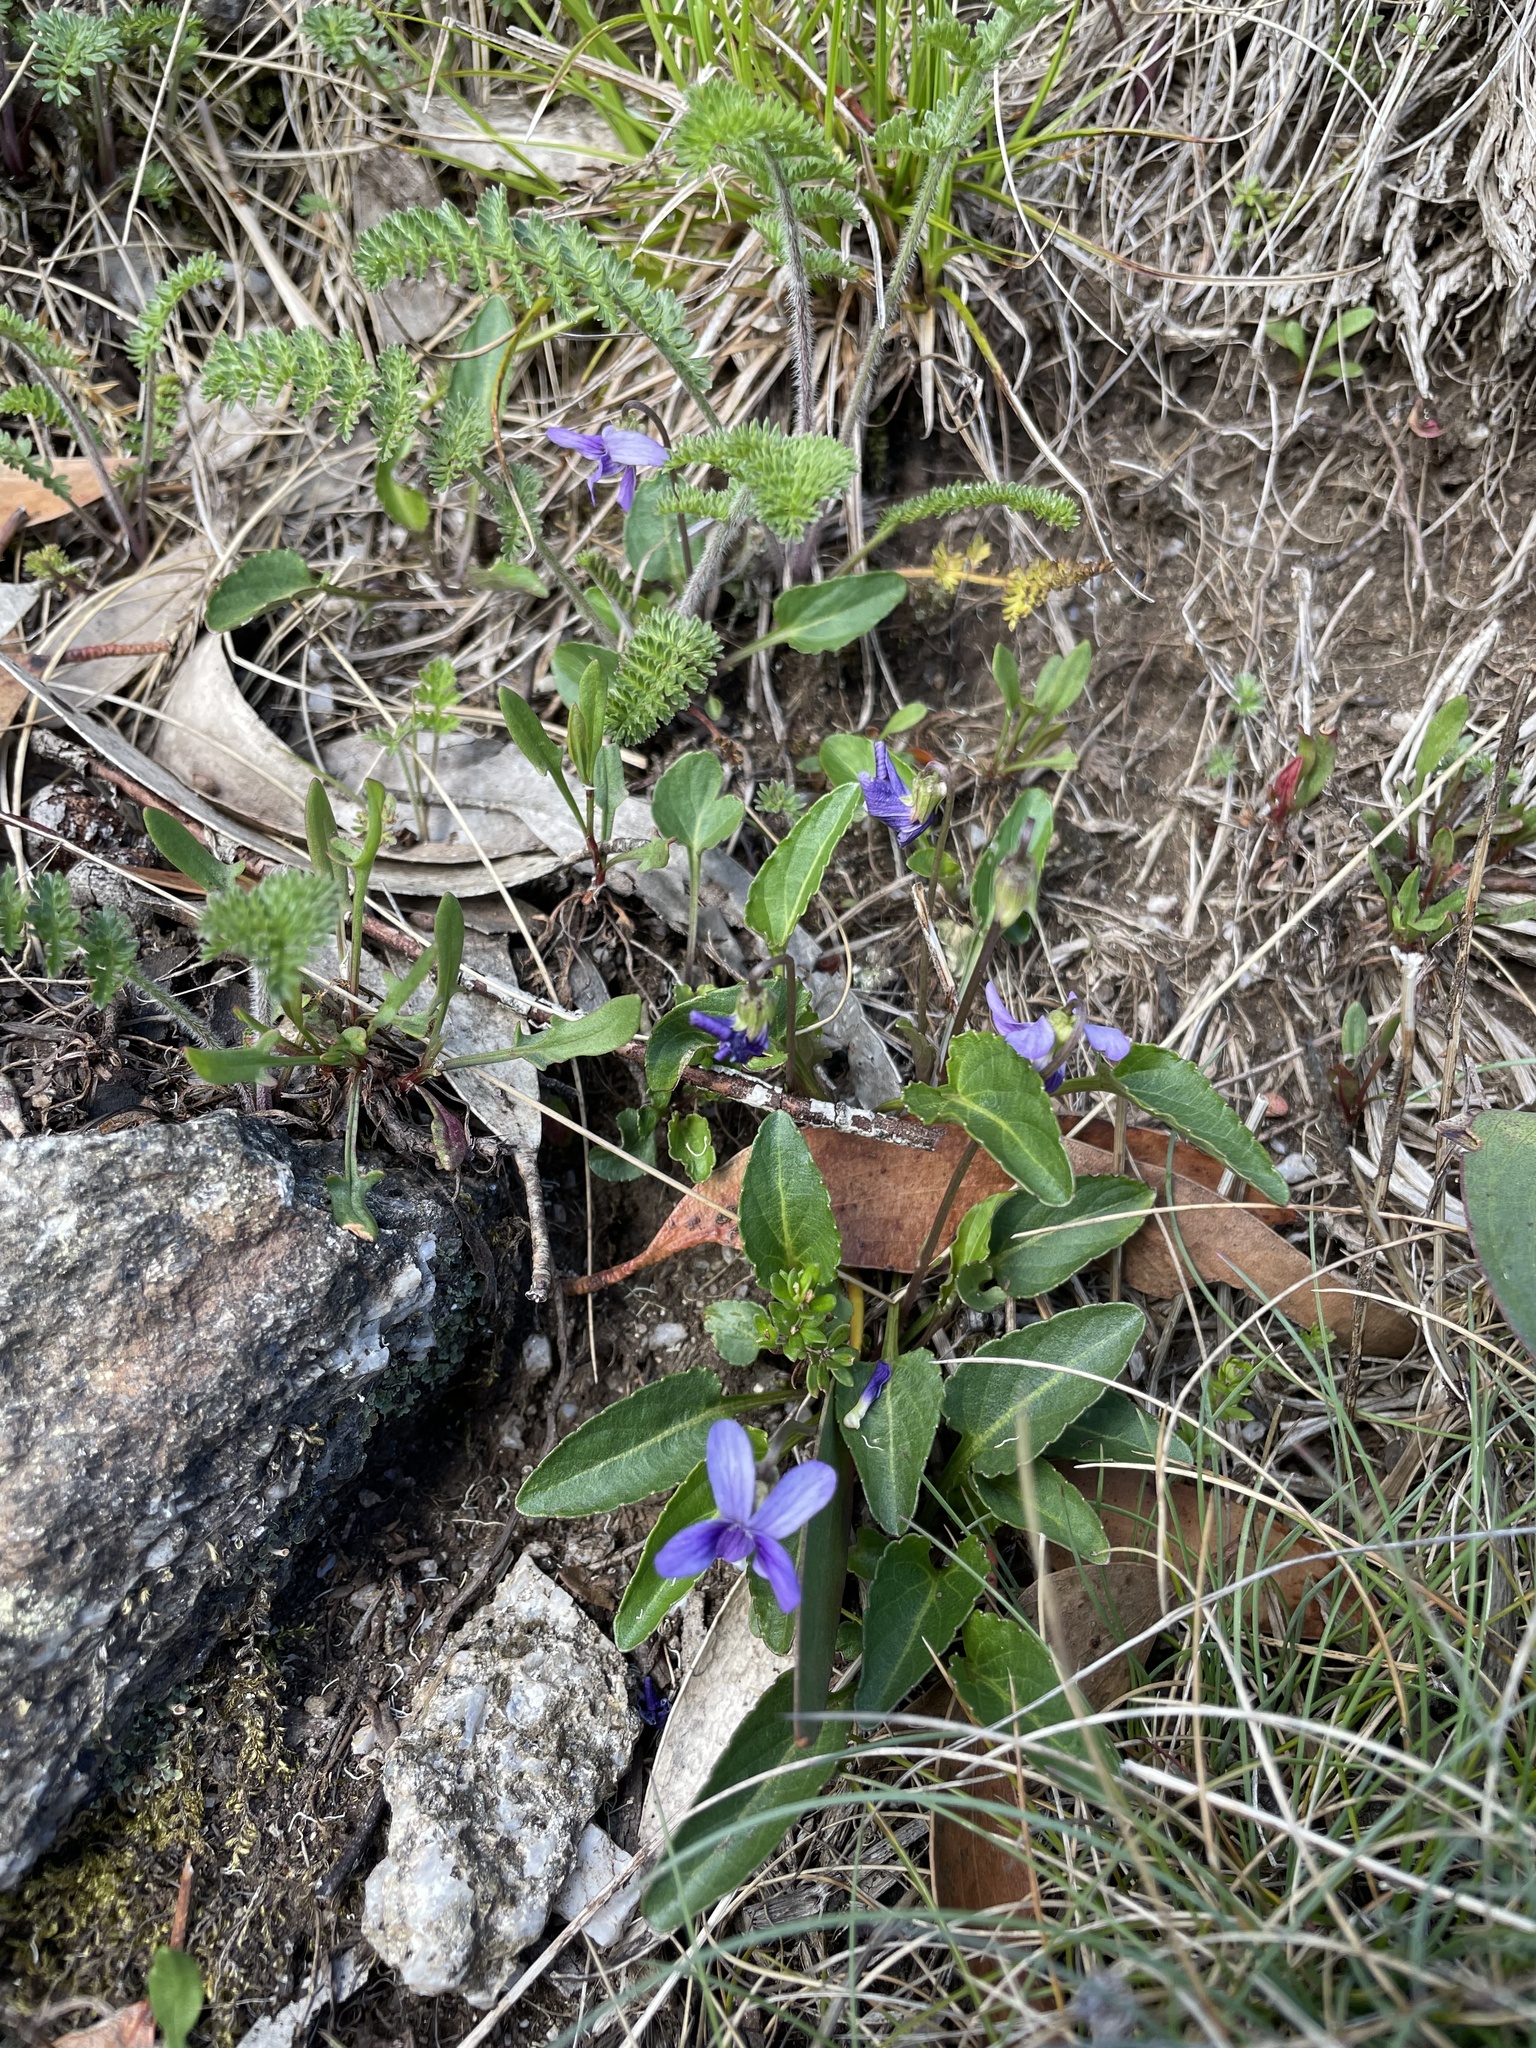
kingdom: Plantae
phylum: Tracheophyta
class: Magnoliopsida
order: Malpighiales
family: Violaceae
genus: Viola
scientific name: Viola betonicifolia
